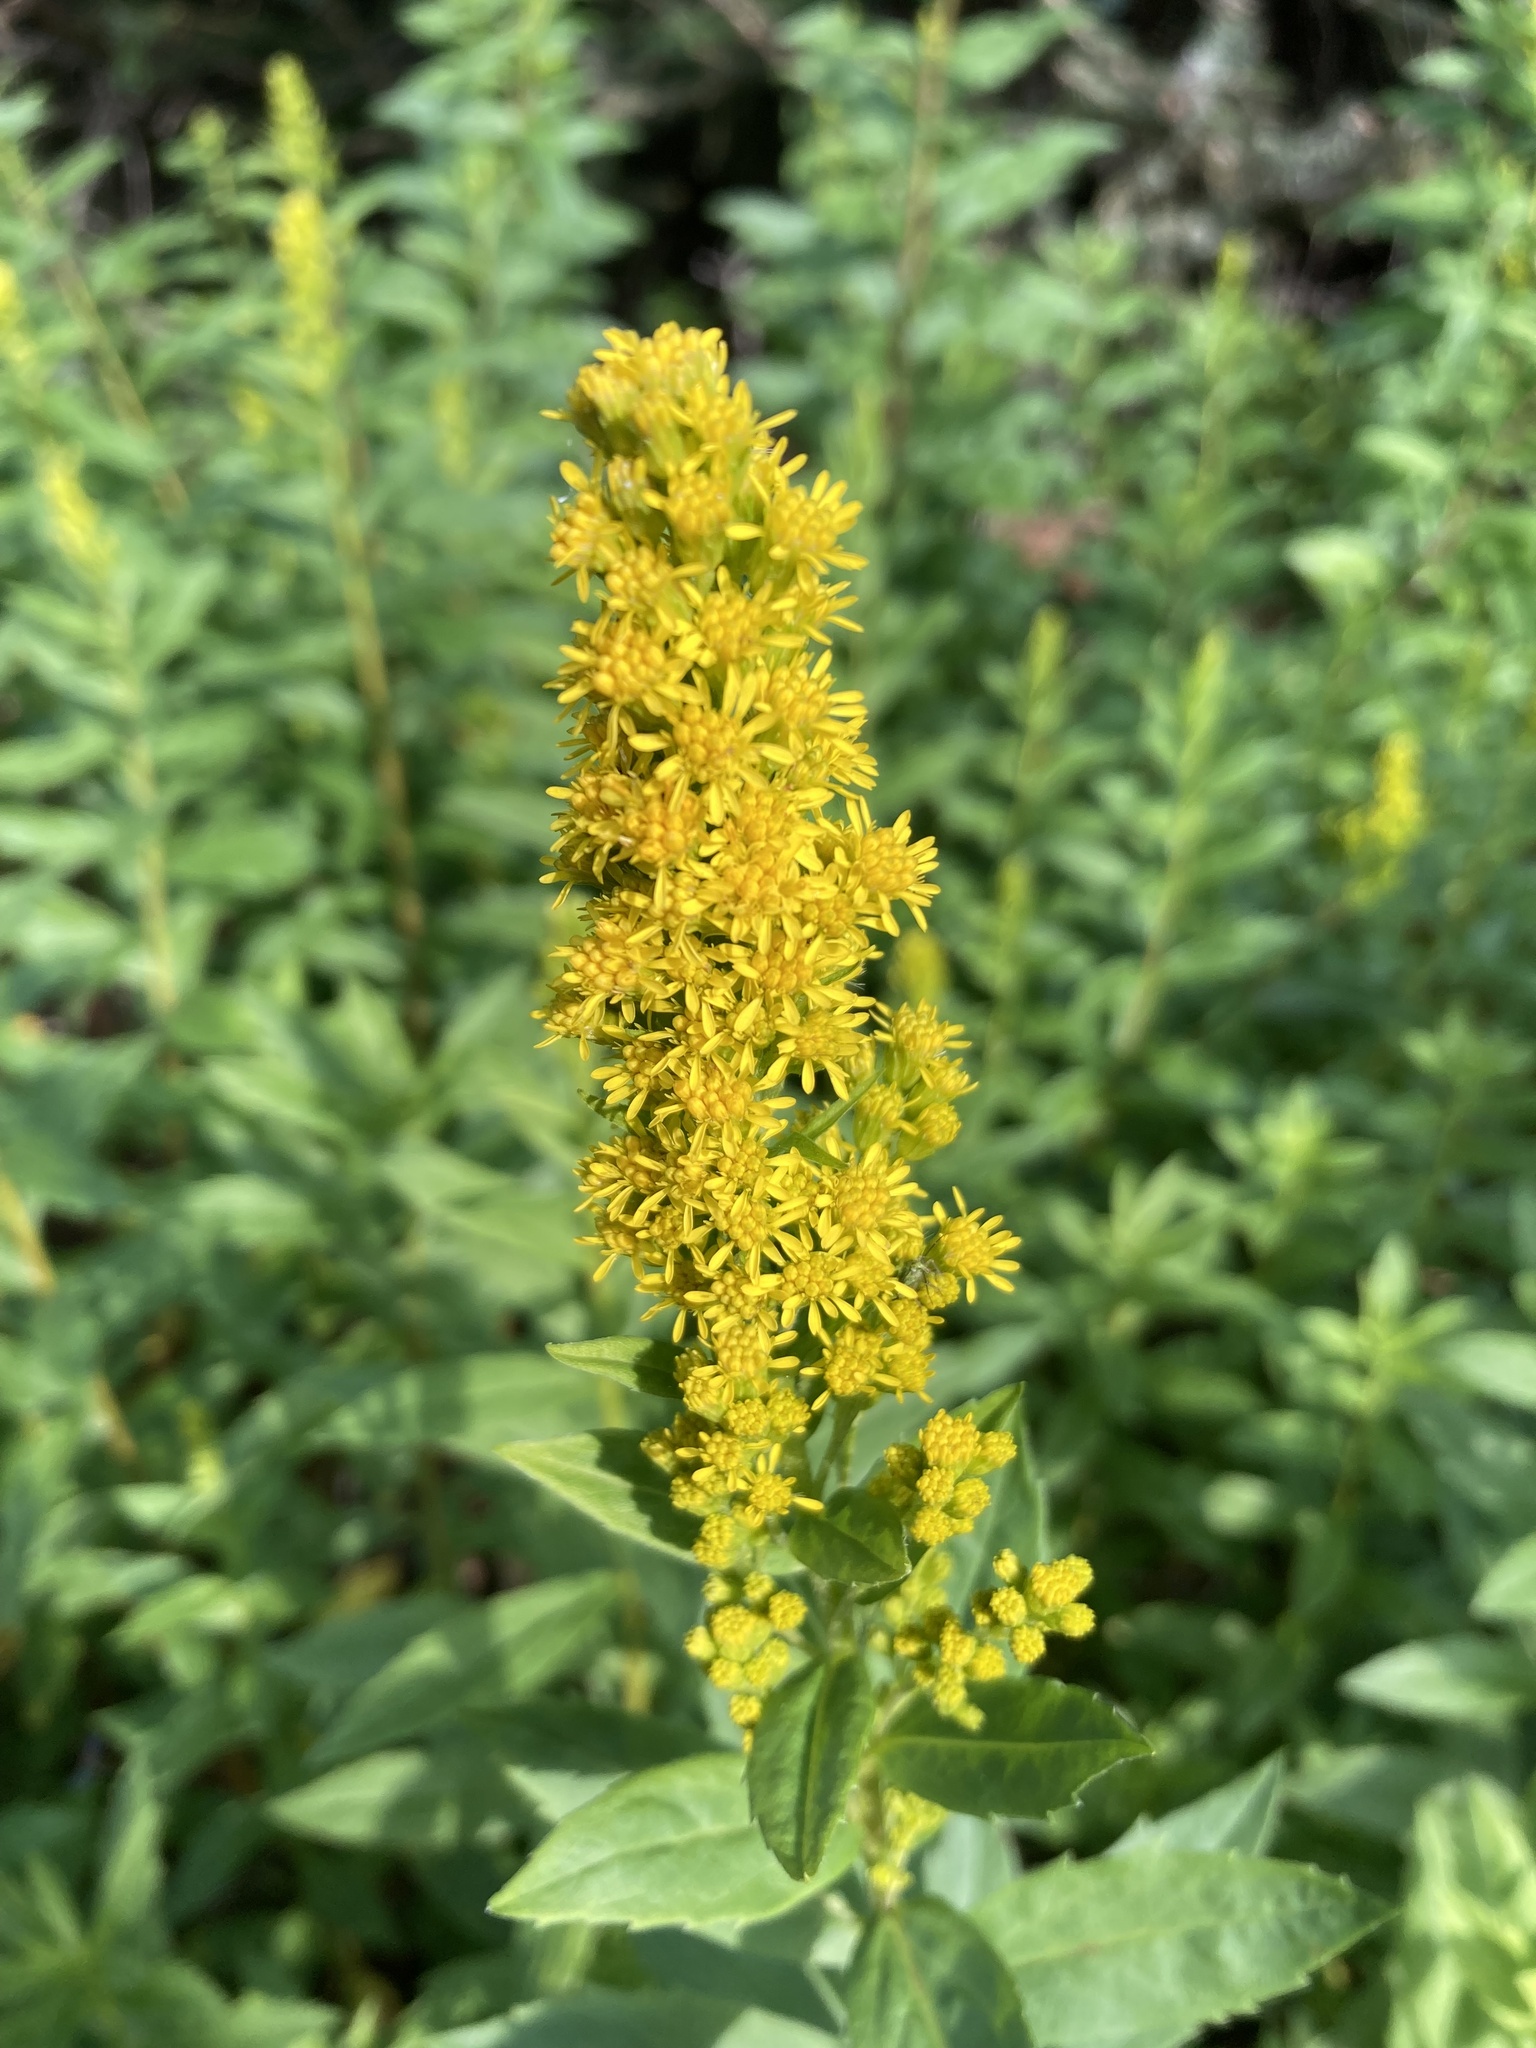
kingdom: Plantae
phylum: Tracheophyta
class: Magnoliopsida
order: Asterales
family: Asteraceae
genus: Solidago
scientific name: Solidago lepida
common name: Western canada goldenrod
